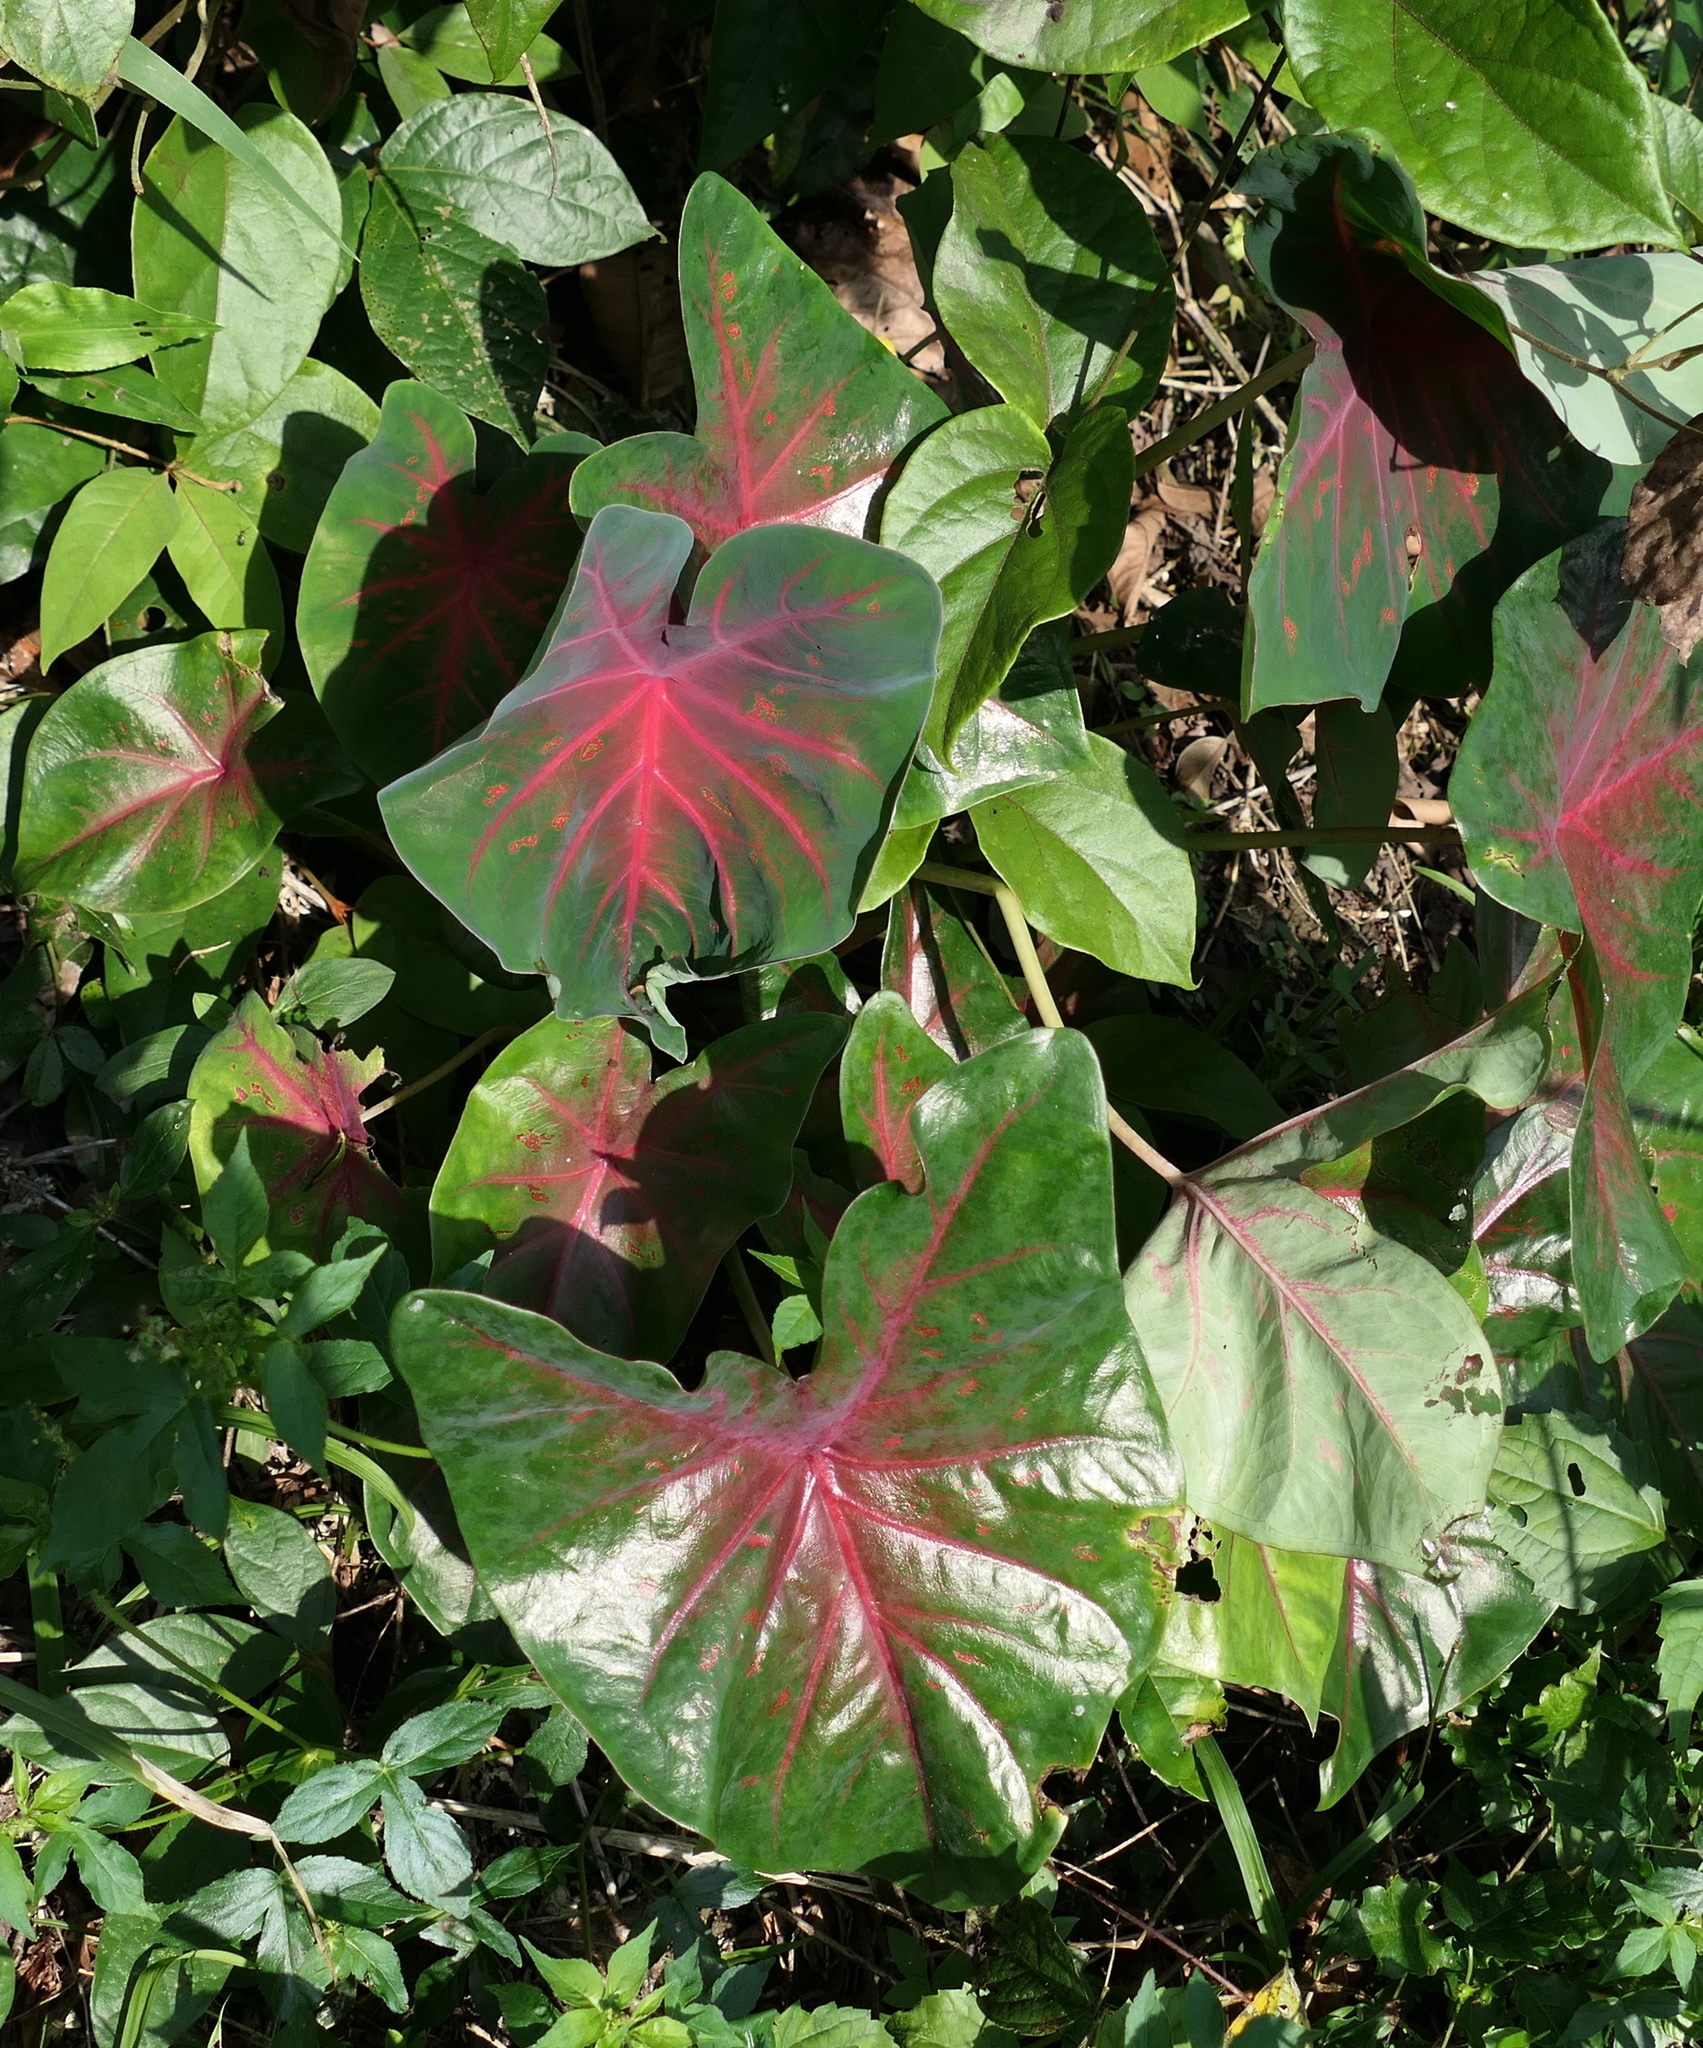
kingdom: Plantae
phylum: Tracheophyta
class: Liliopsida
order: Alismatales
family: Araceae
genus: Caladium
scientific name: Caladium bicolor
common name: Artist's pallet
